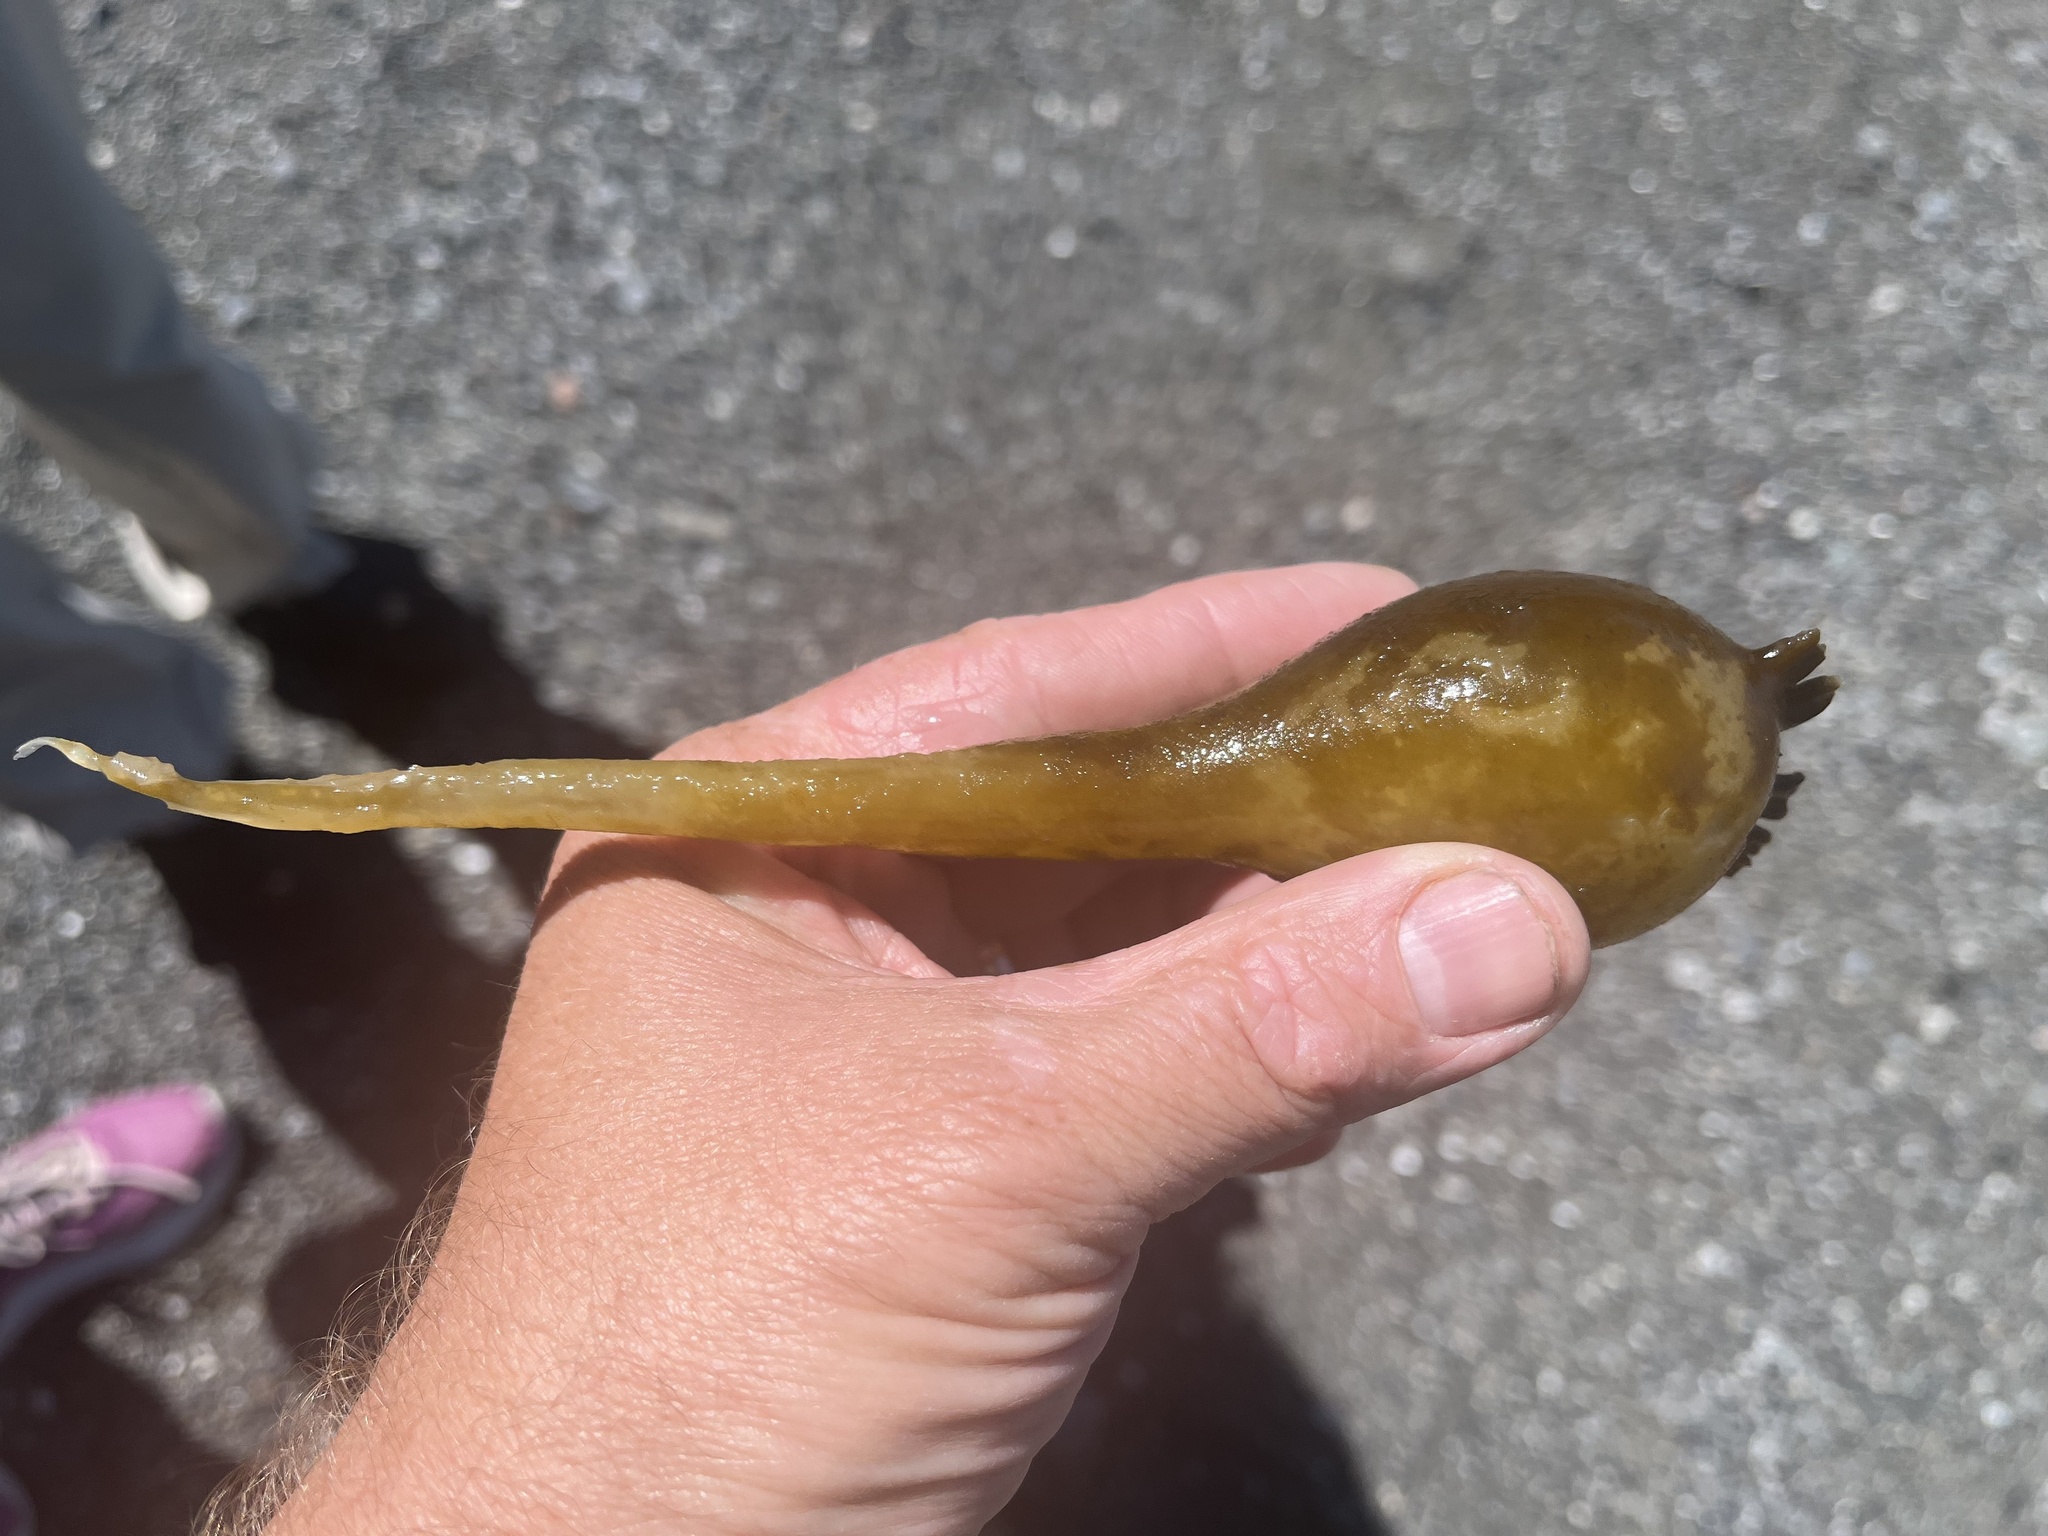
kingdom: Chromista
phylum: Ochrophyta
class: Phaeophyceae
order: Laminariales
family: Laminariaceae
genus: Nereocystis
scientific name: Nereocystis luetkeana
